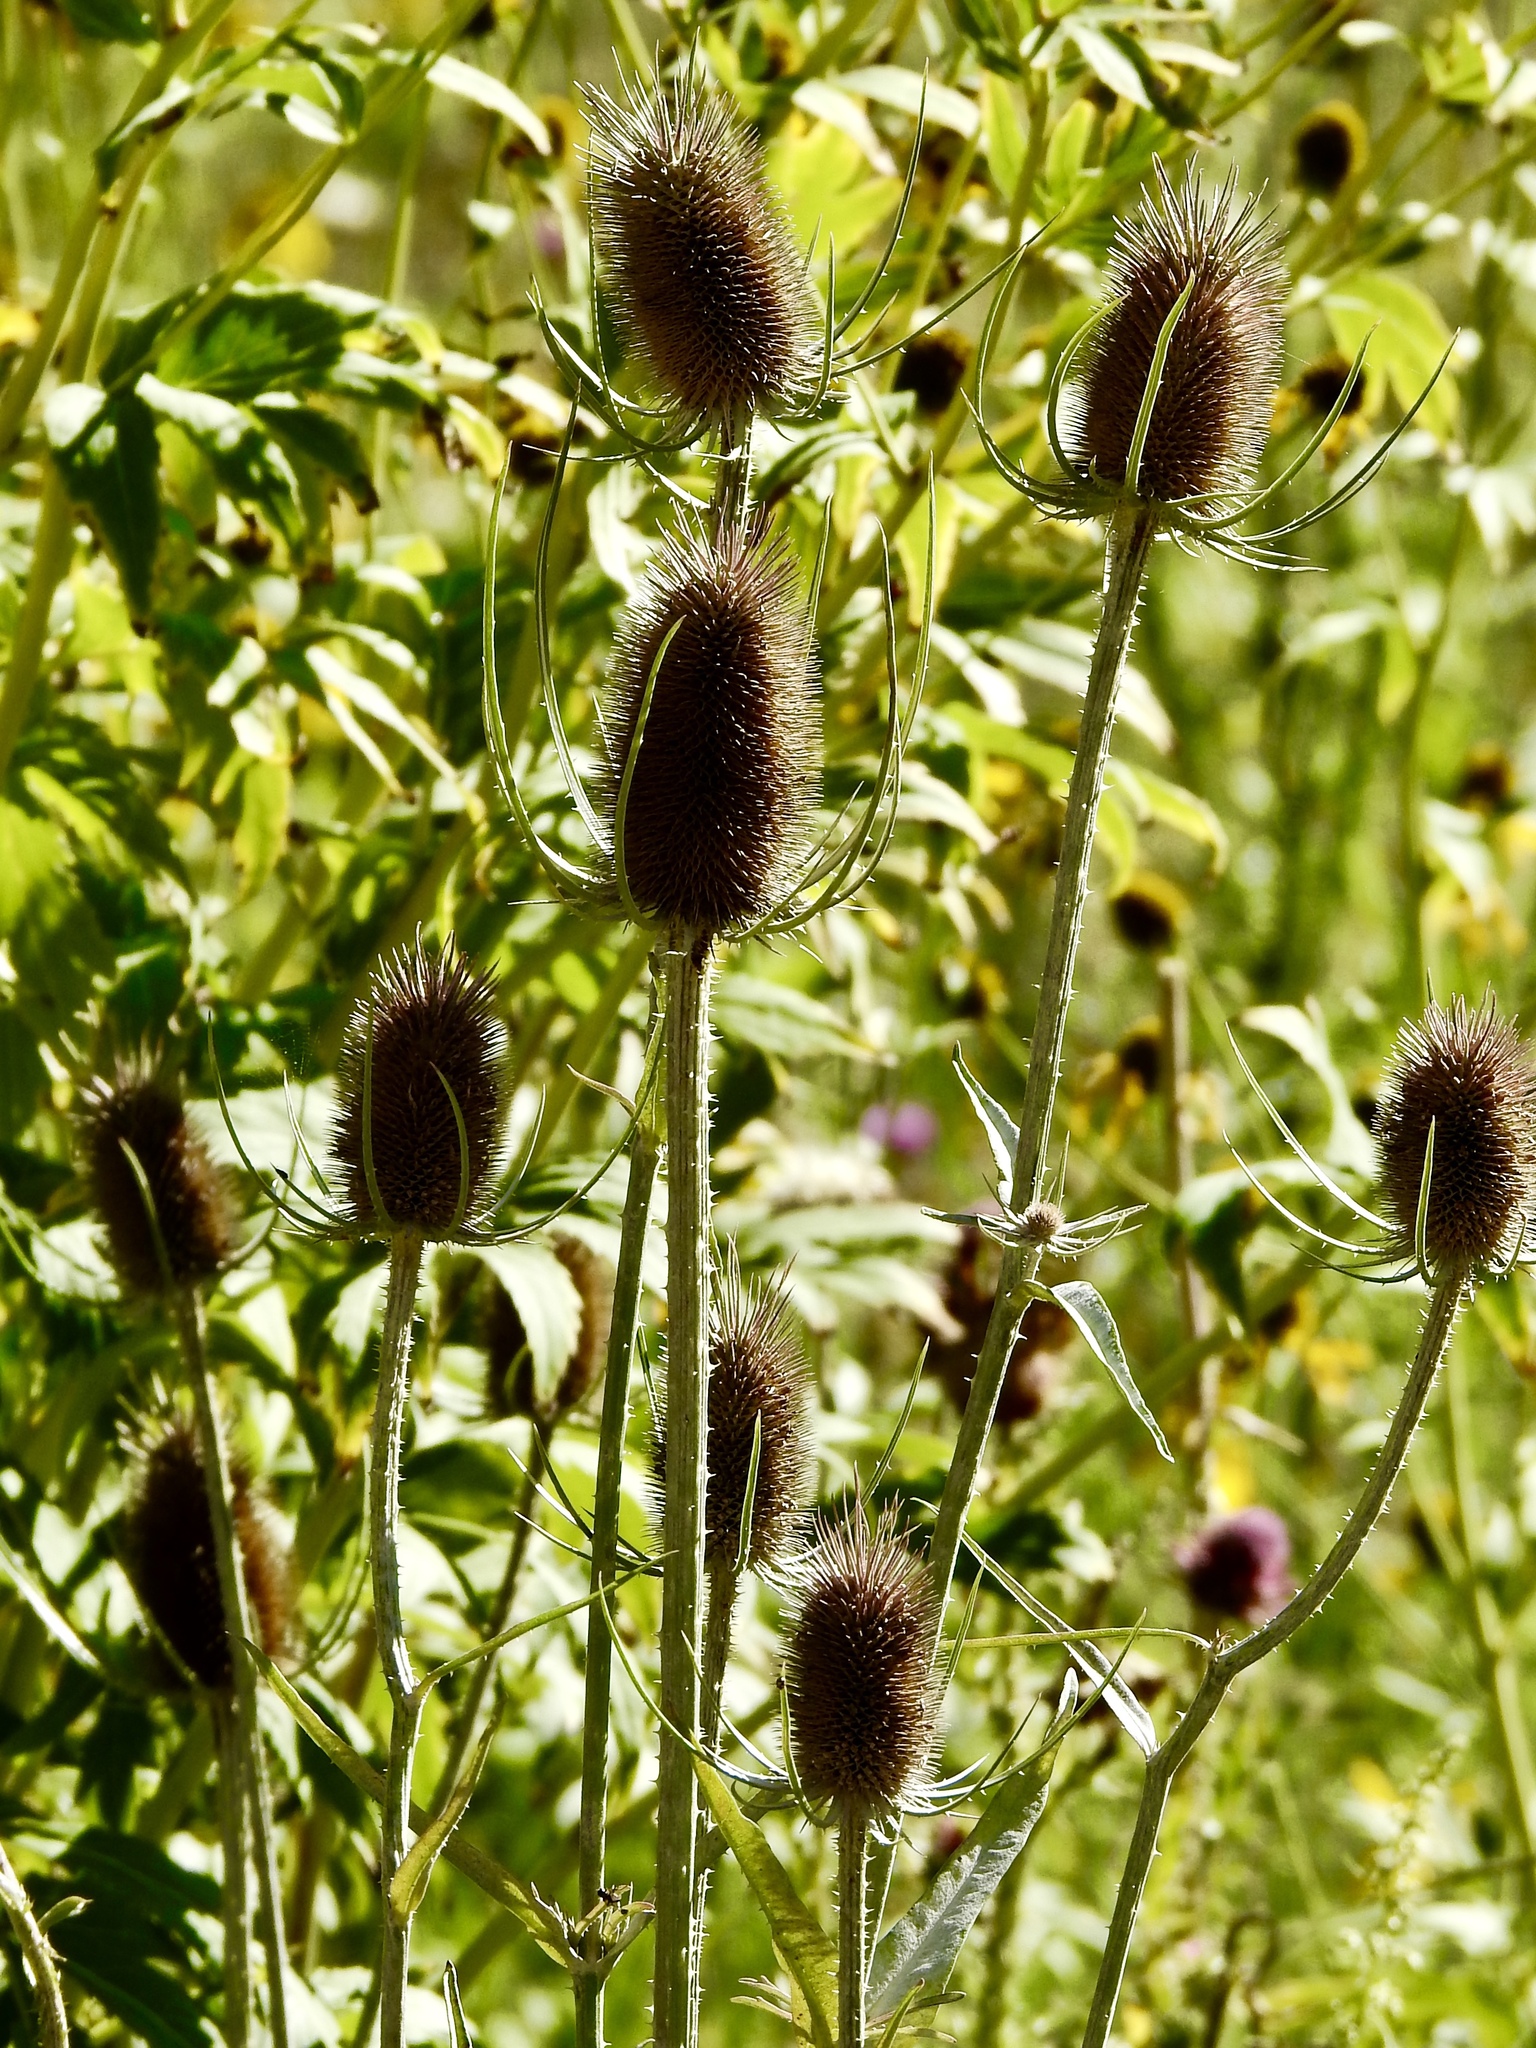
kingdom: Plantae
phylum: Tracheophyta
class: Magnoliopsida
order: Dipsacales
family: Caprifoliaceae
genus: Dipsacus
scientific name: Dipsacus fullonum
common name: Teasel
